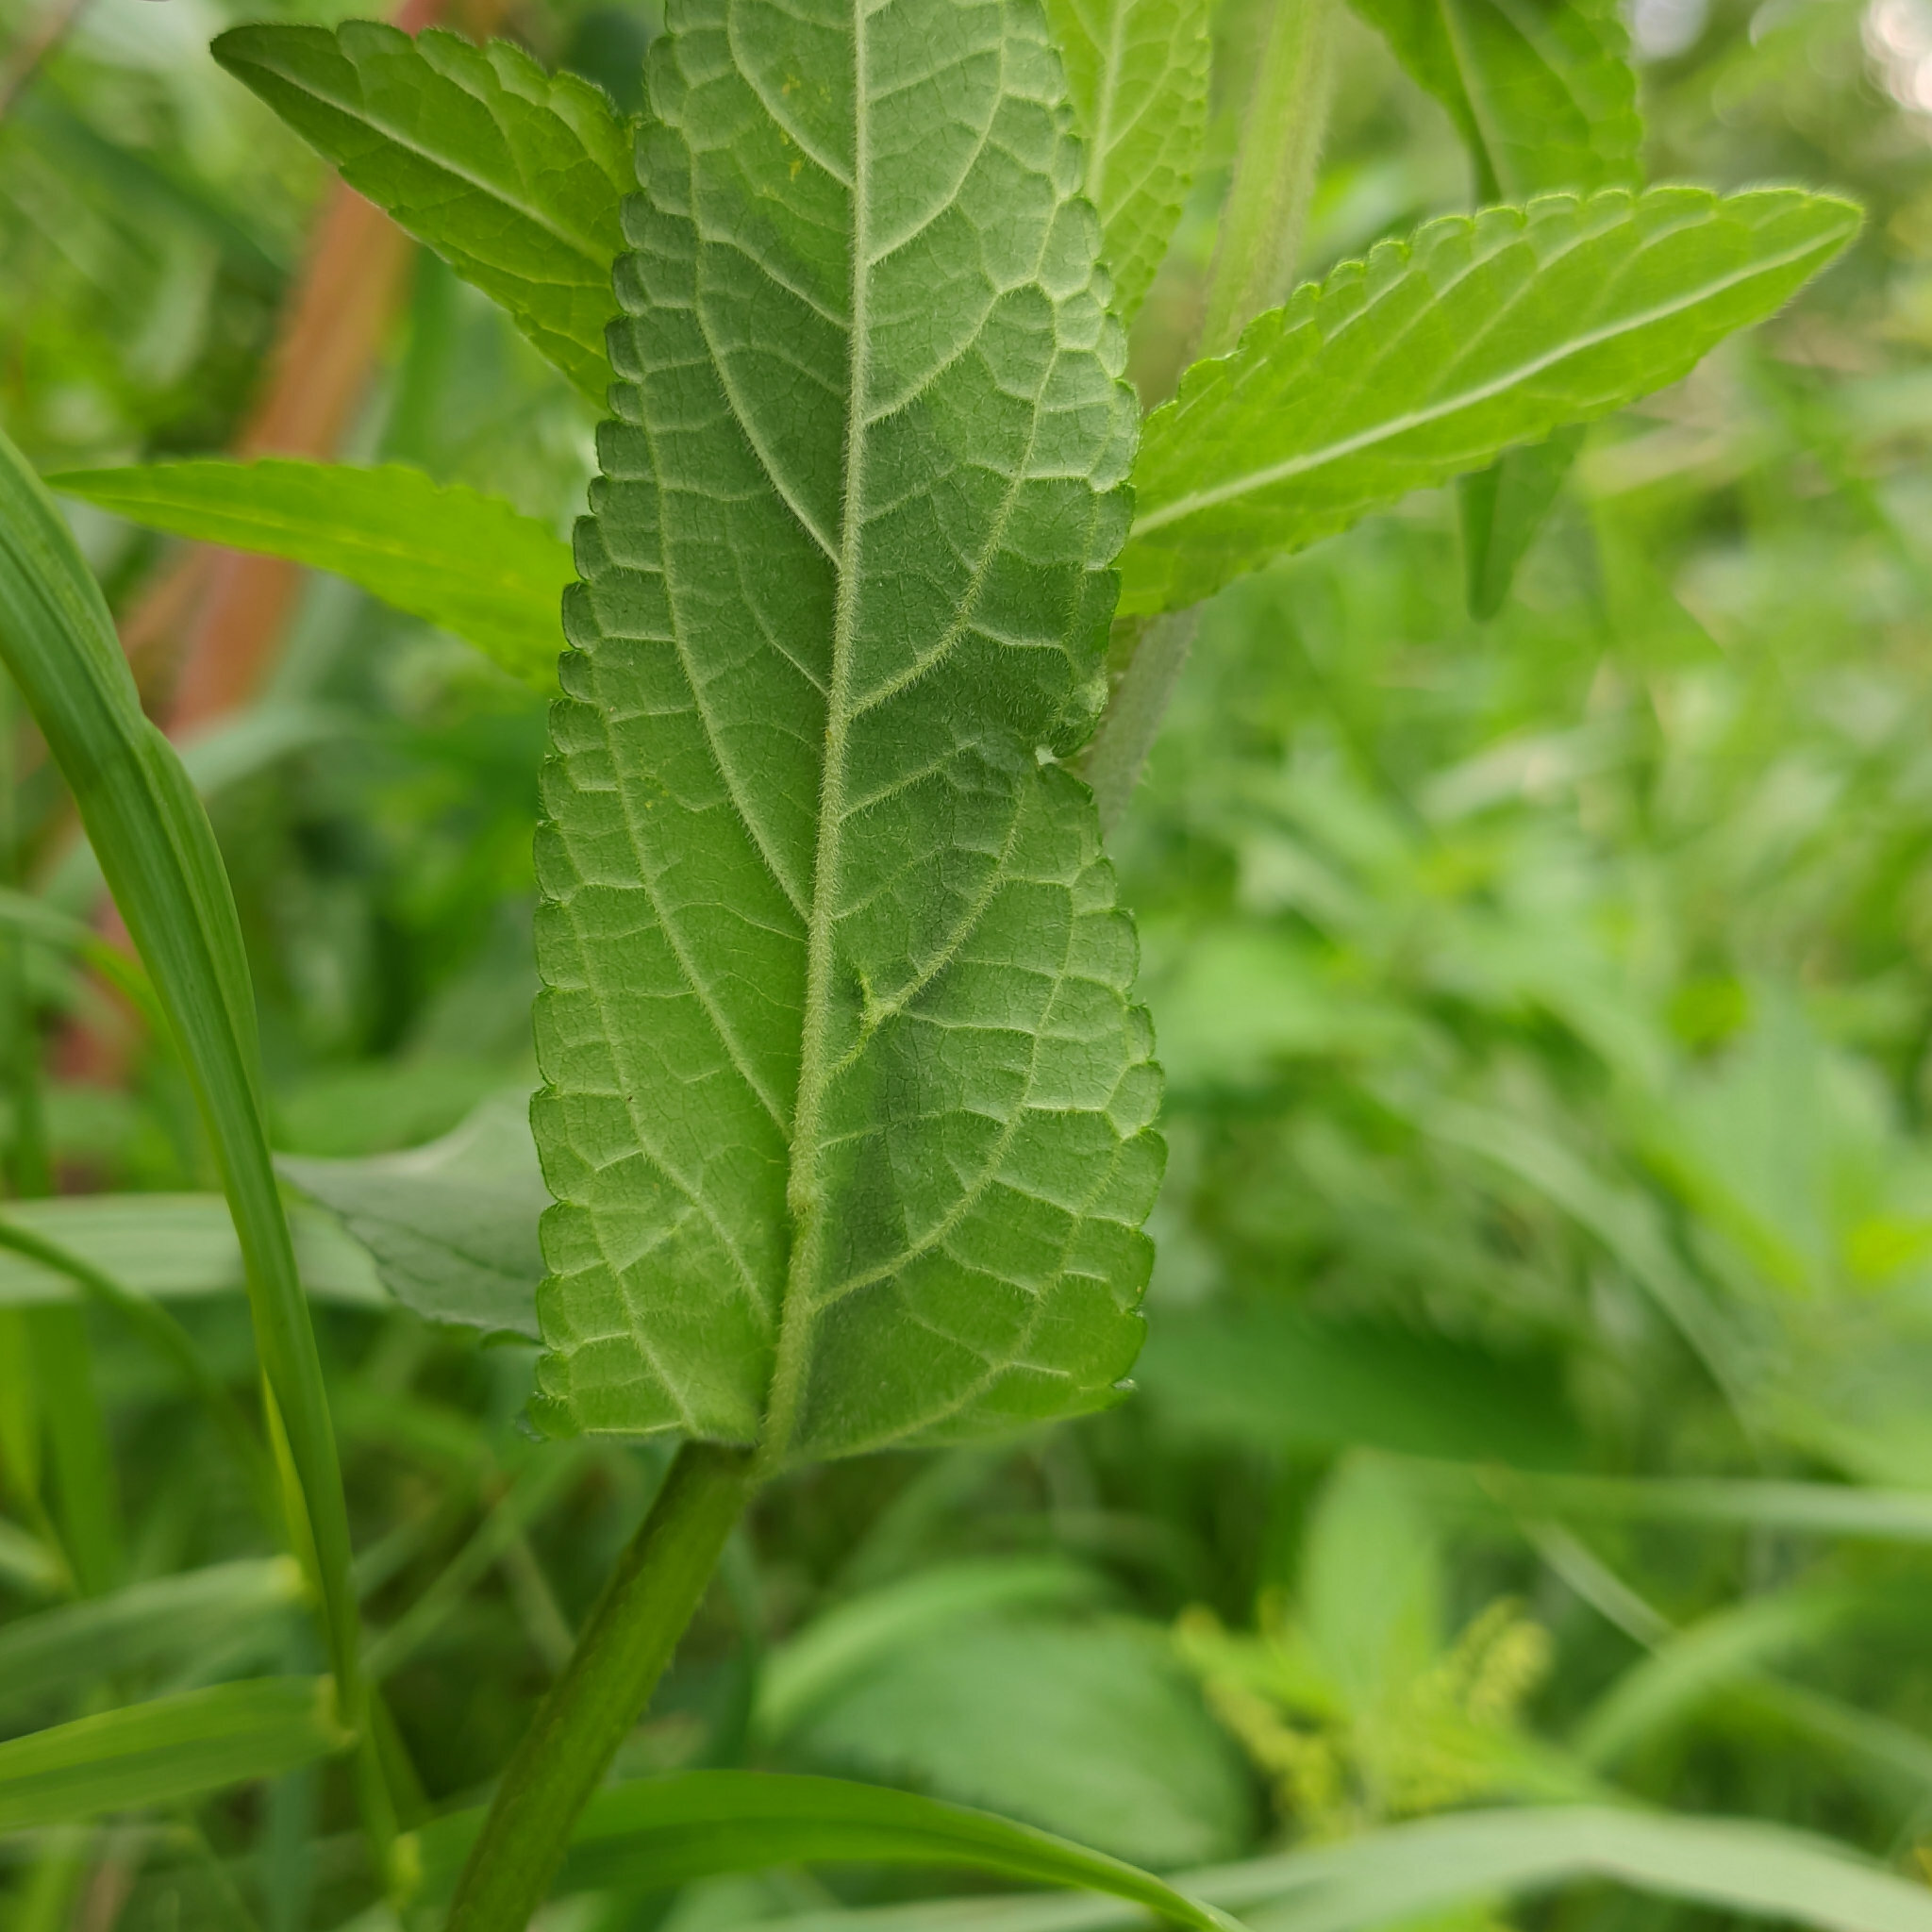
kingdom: Plantae
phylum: Tracheophyta
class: Magnoliopsida
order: Lamiales
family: Lamiaceae
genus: Stachys
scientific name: Stachys palustris
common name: Marsh woundwort
